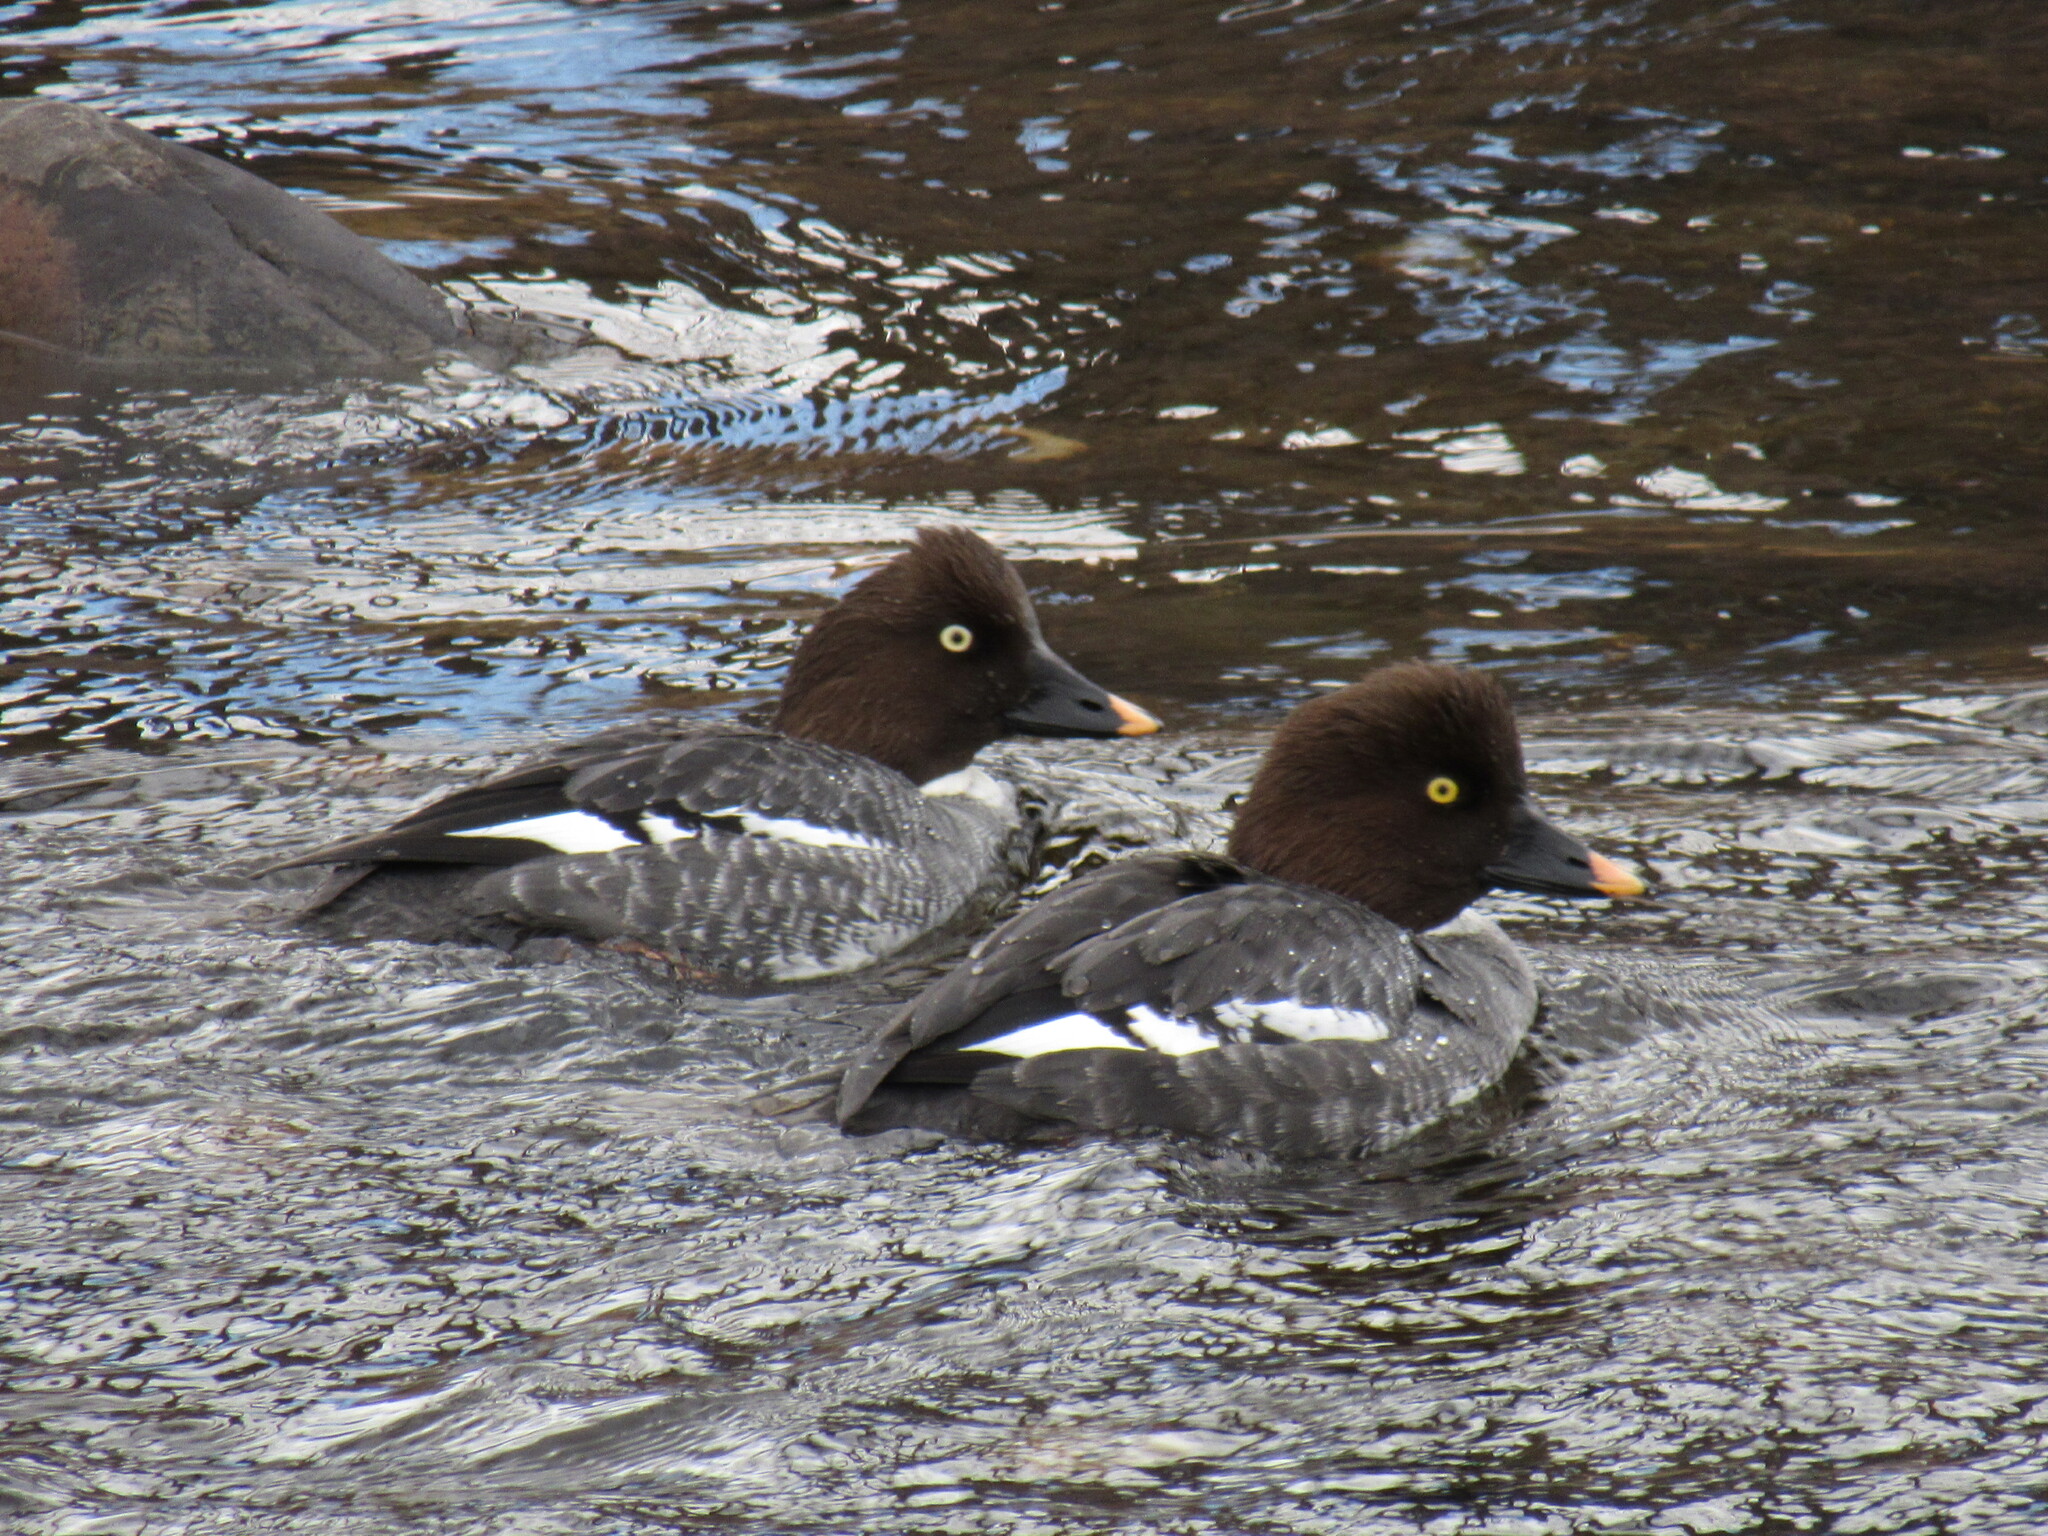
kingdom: Animalia
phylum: Chordata
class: Aves
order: Anseriformes
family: Anatidae
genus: Bucephala
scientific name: Bucephala clangula
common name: Common goldeneye
